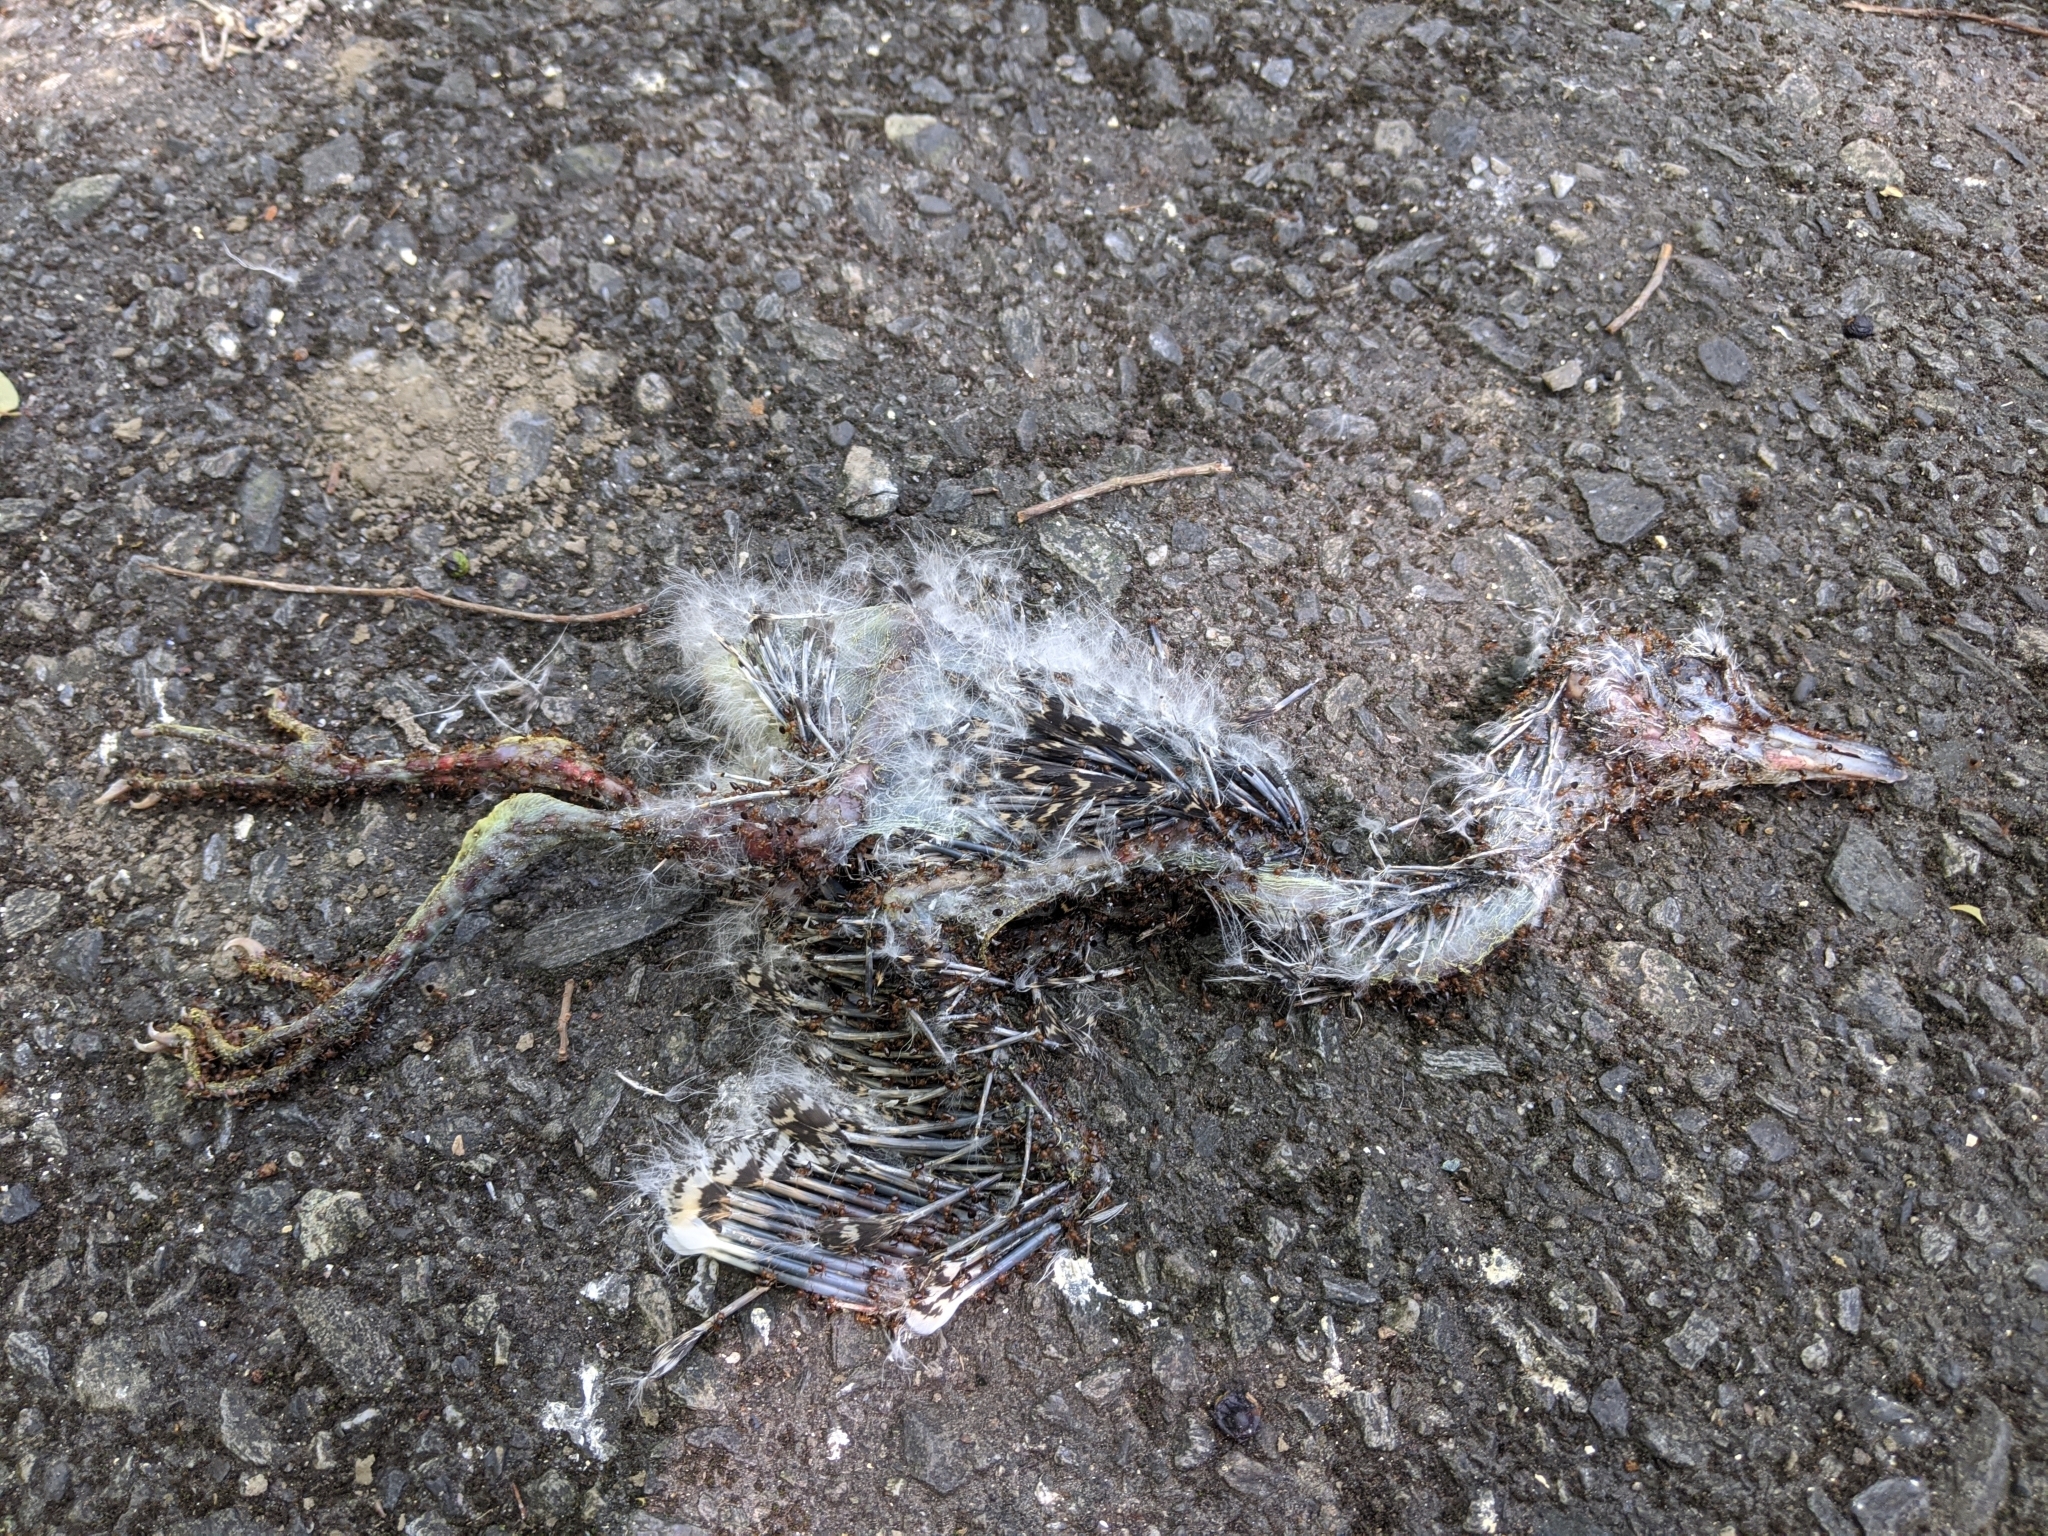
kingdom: Animalia
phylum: Chordata
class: Aves
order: Pelecaniformes
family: Ardeidae
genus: Gorsachius
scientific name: Gorsachius melanolophus
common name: Malayan night heron
